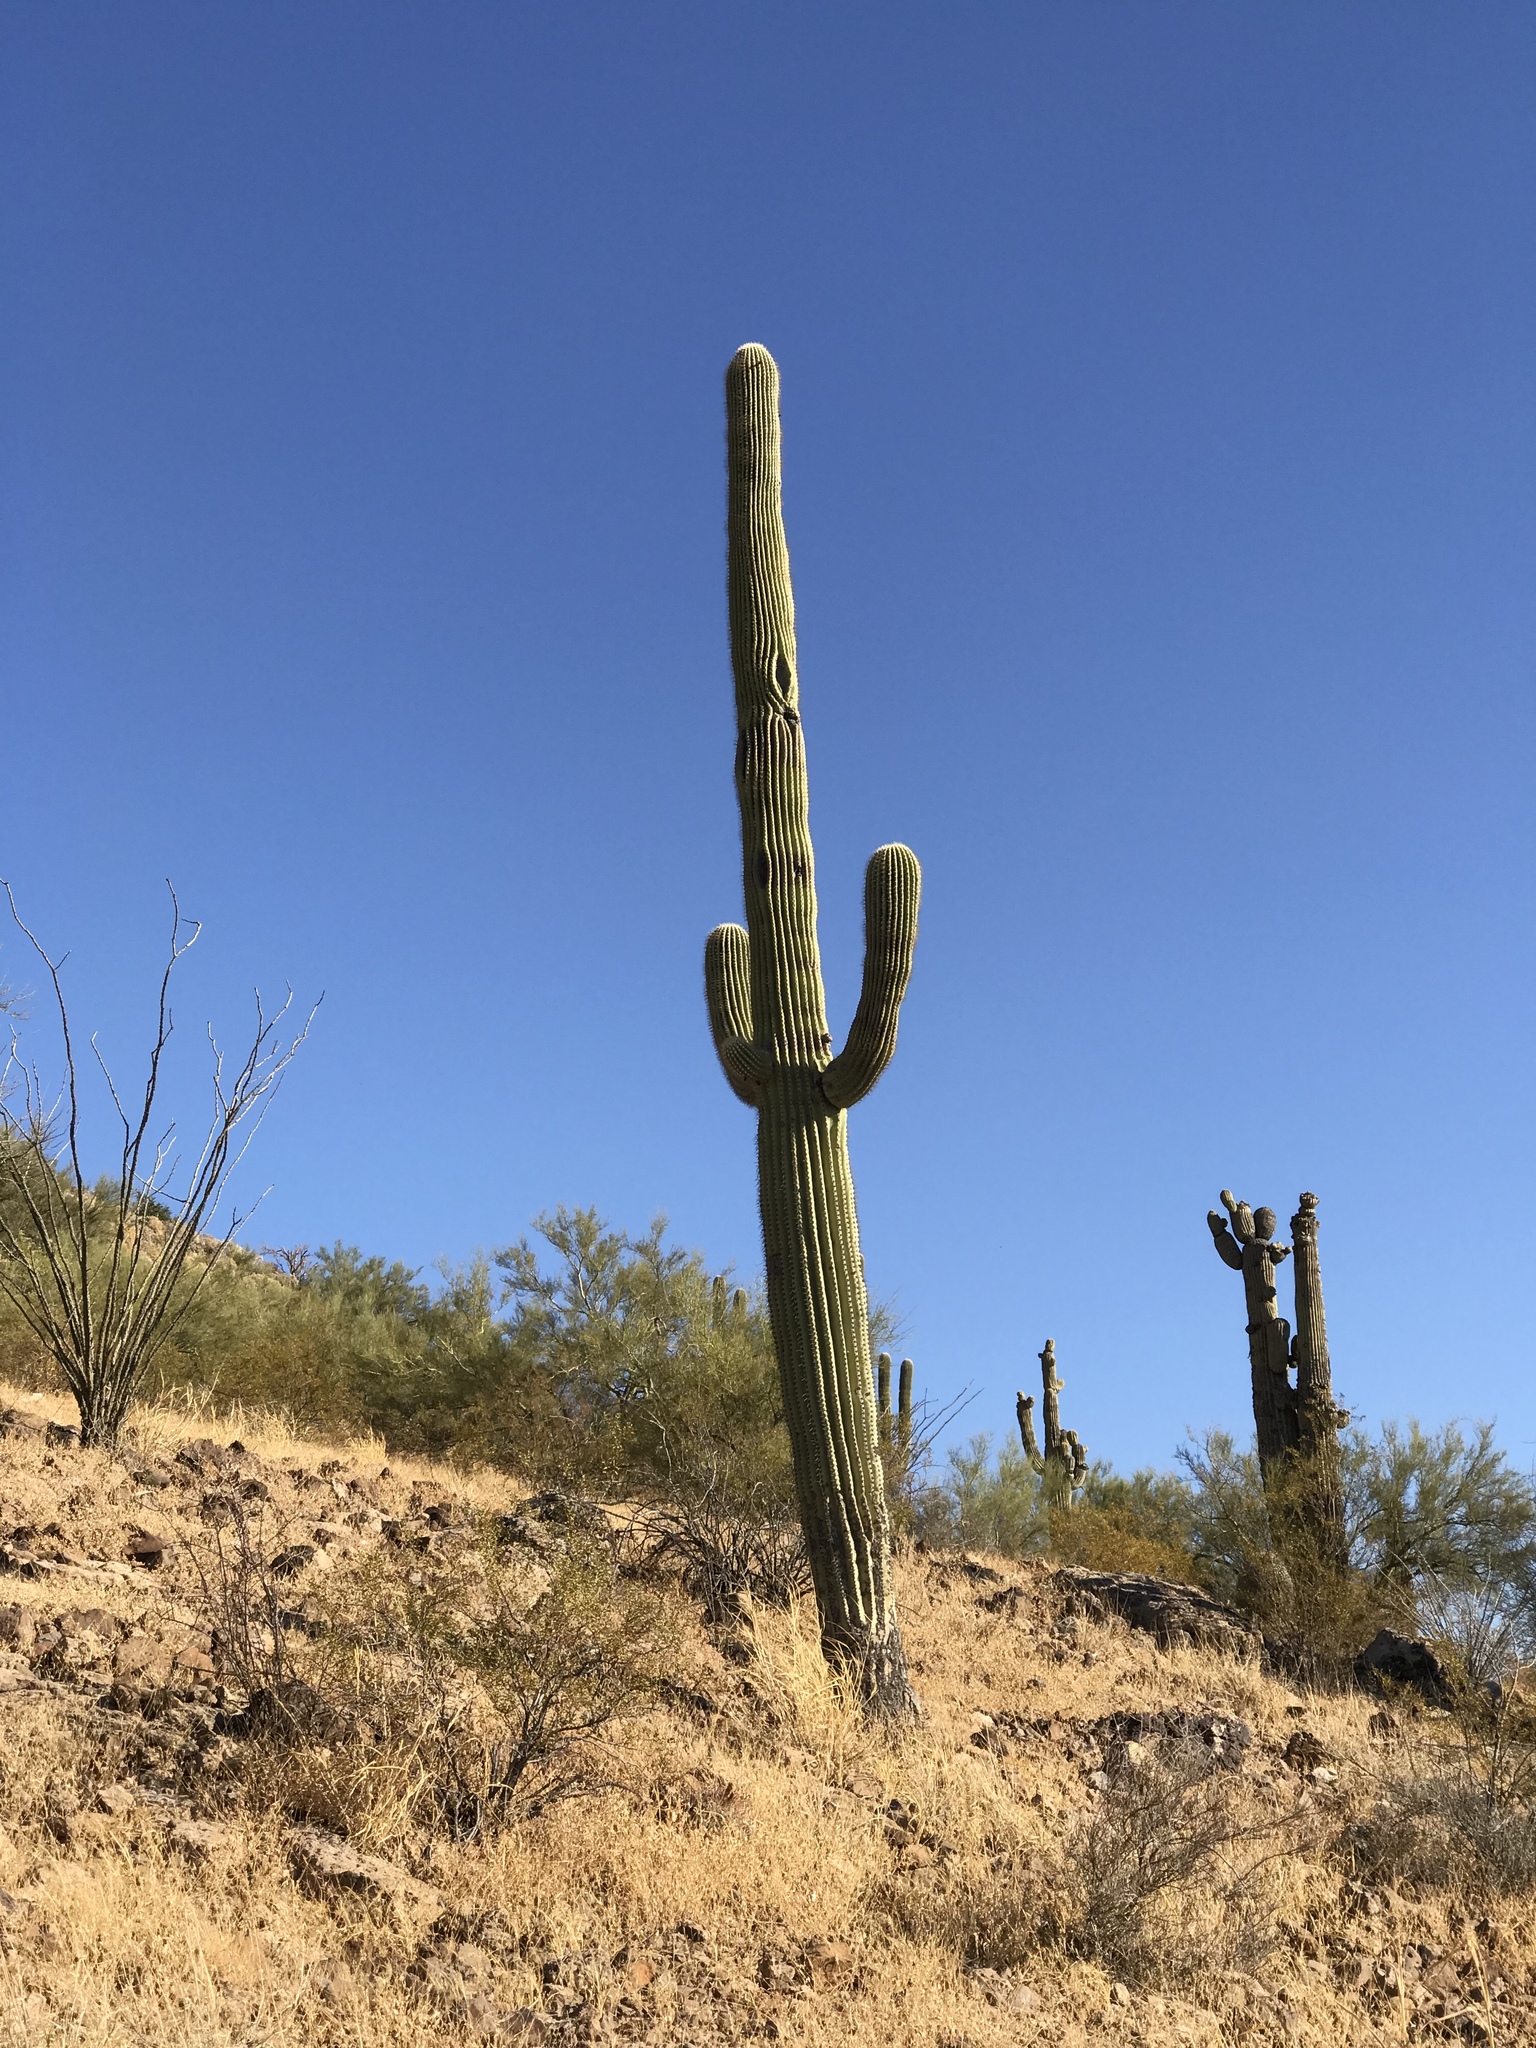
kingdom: Plantae
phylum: Tracheophyta
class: Magnoliopsida
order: Caryophyllales
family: Cactaceae
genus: Carnegiea
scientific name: Carnegiea gigantea
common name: Saguaro
